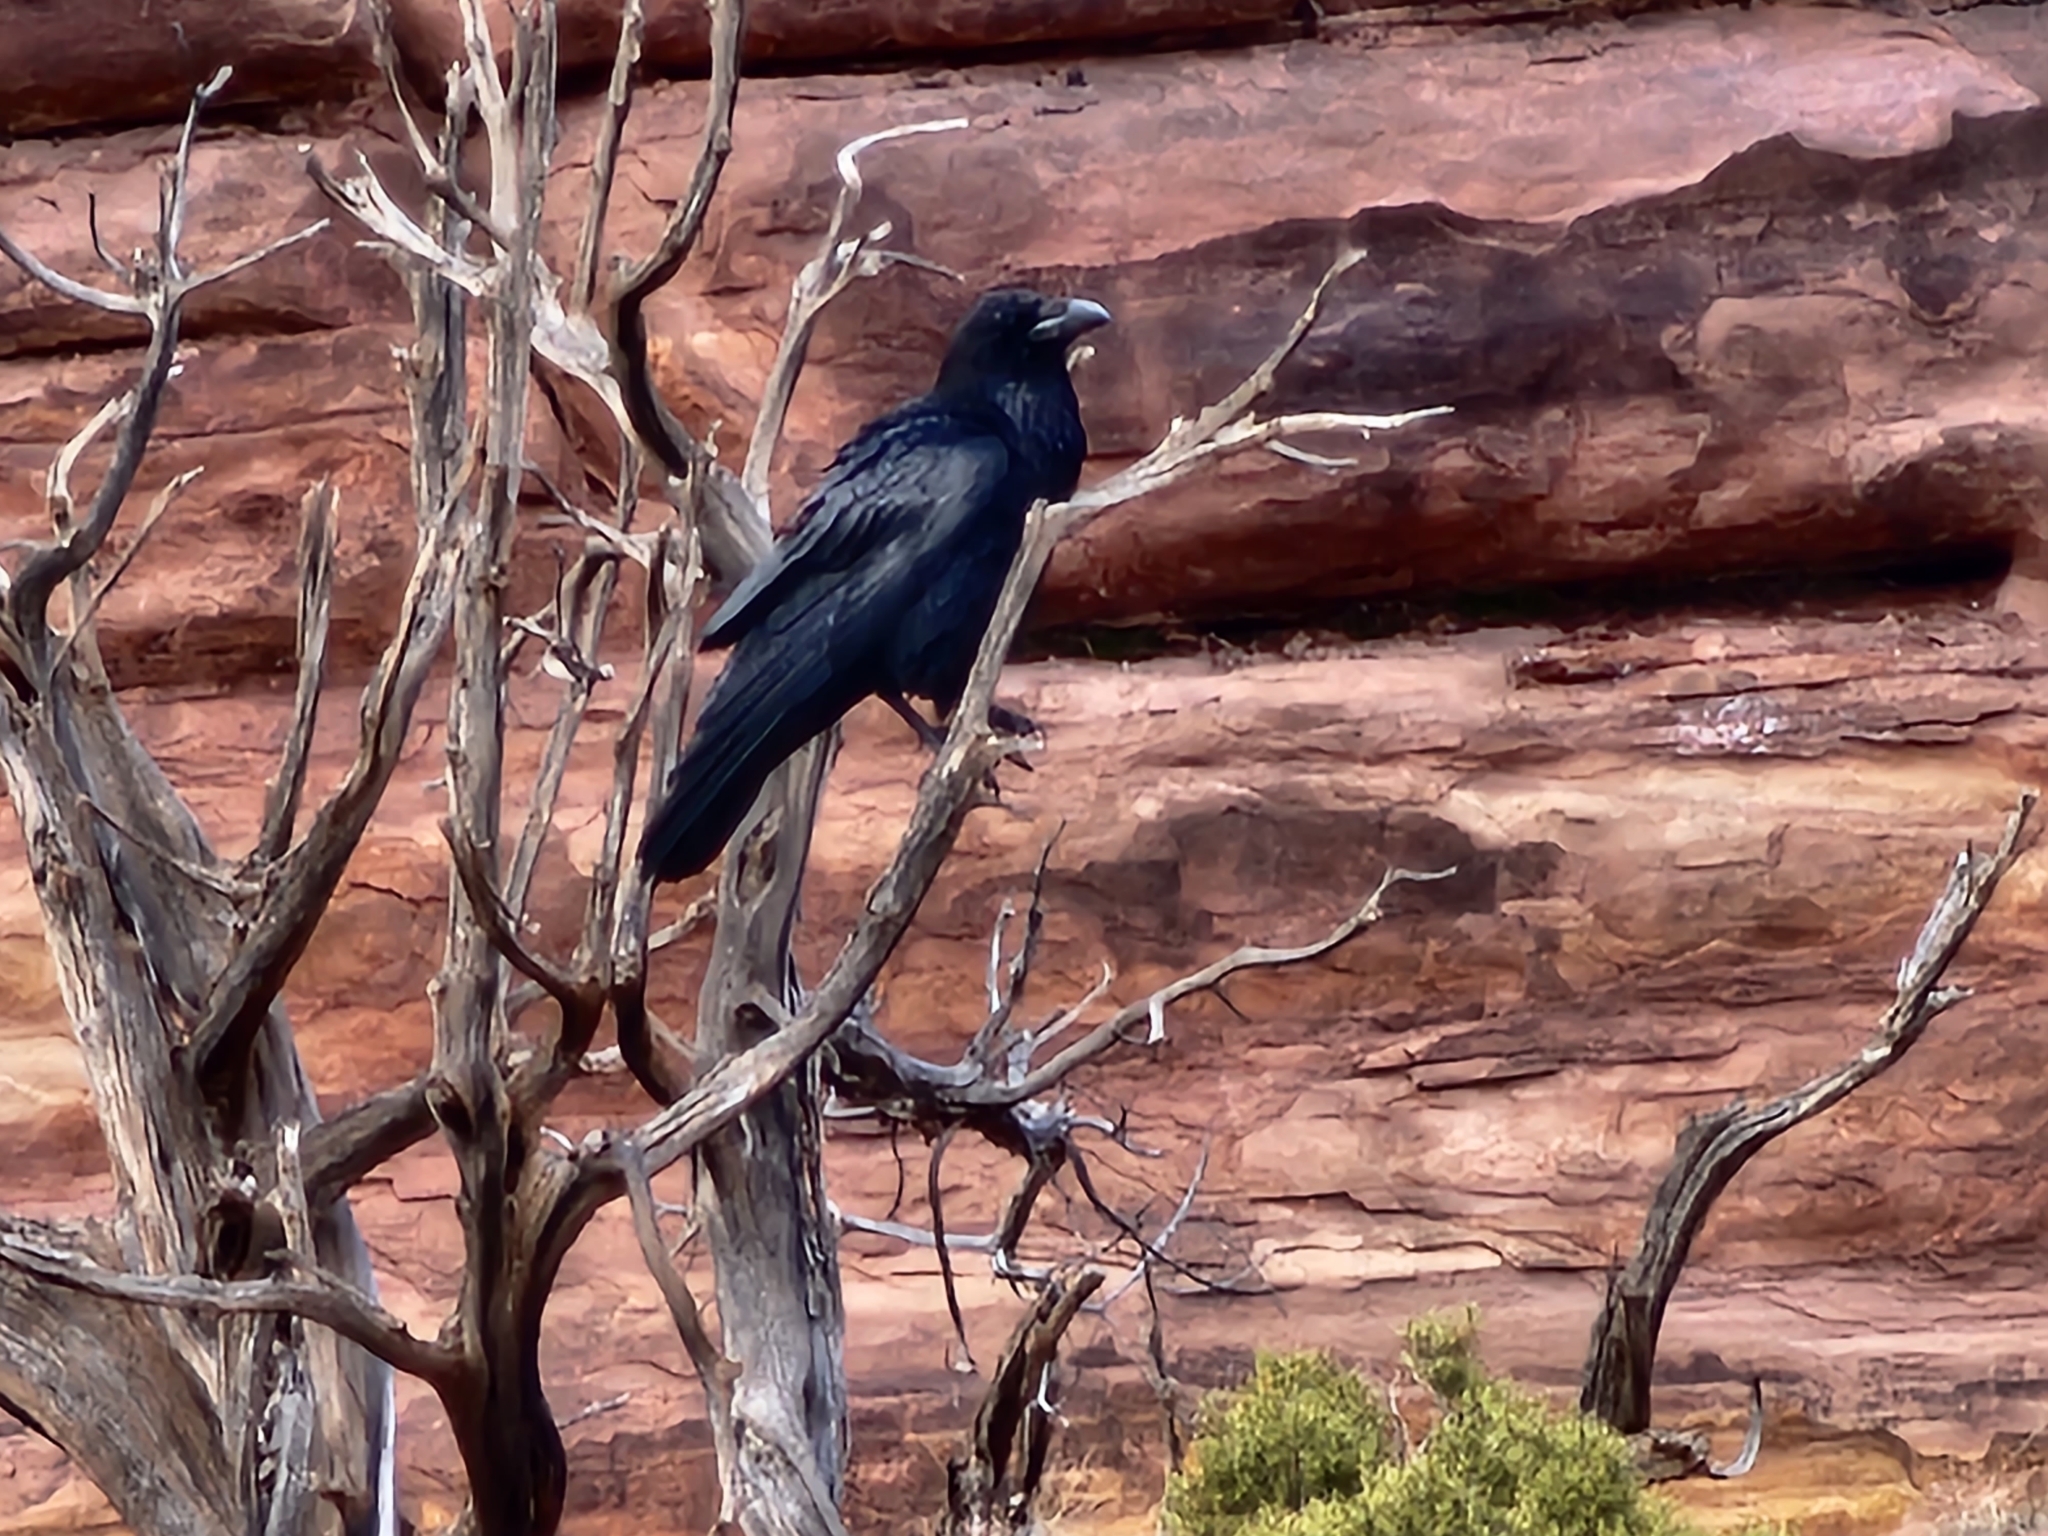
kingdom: Animalia
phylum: Chordata
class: Aves
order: Passeriformes
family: Corvidae
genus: Corvus
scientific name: Corvus corax
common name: Common raven
